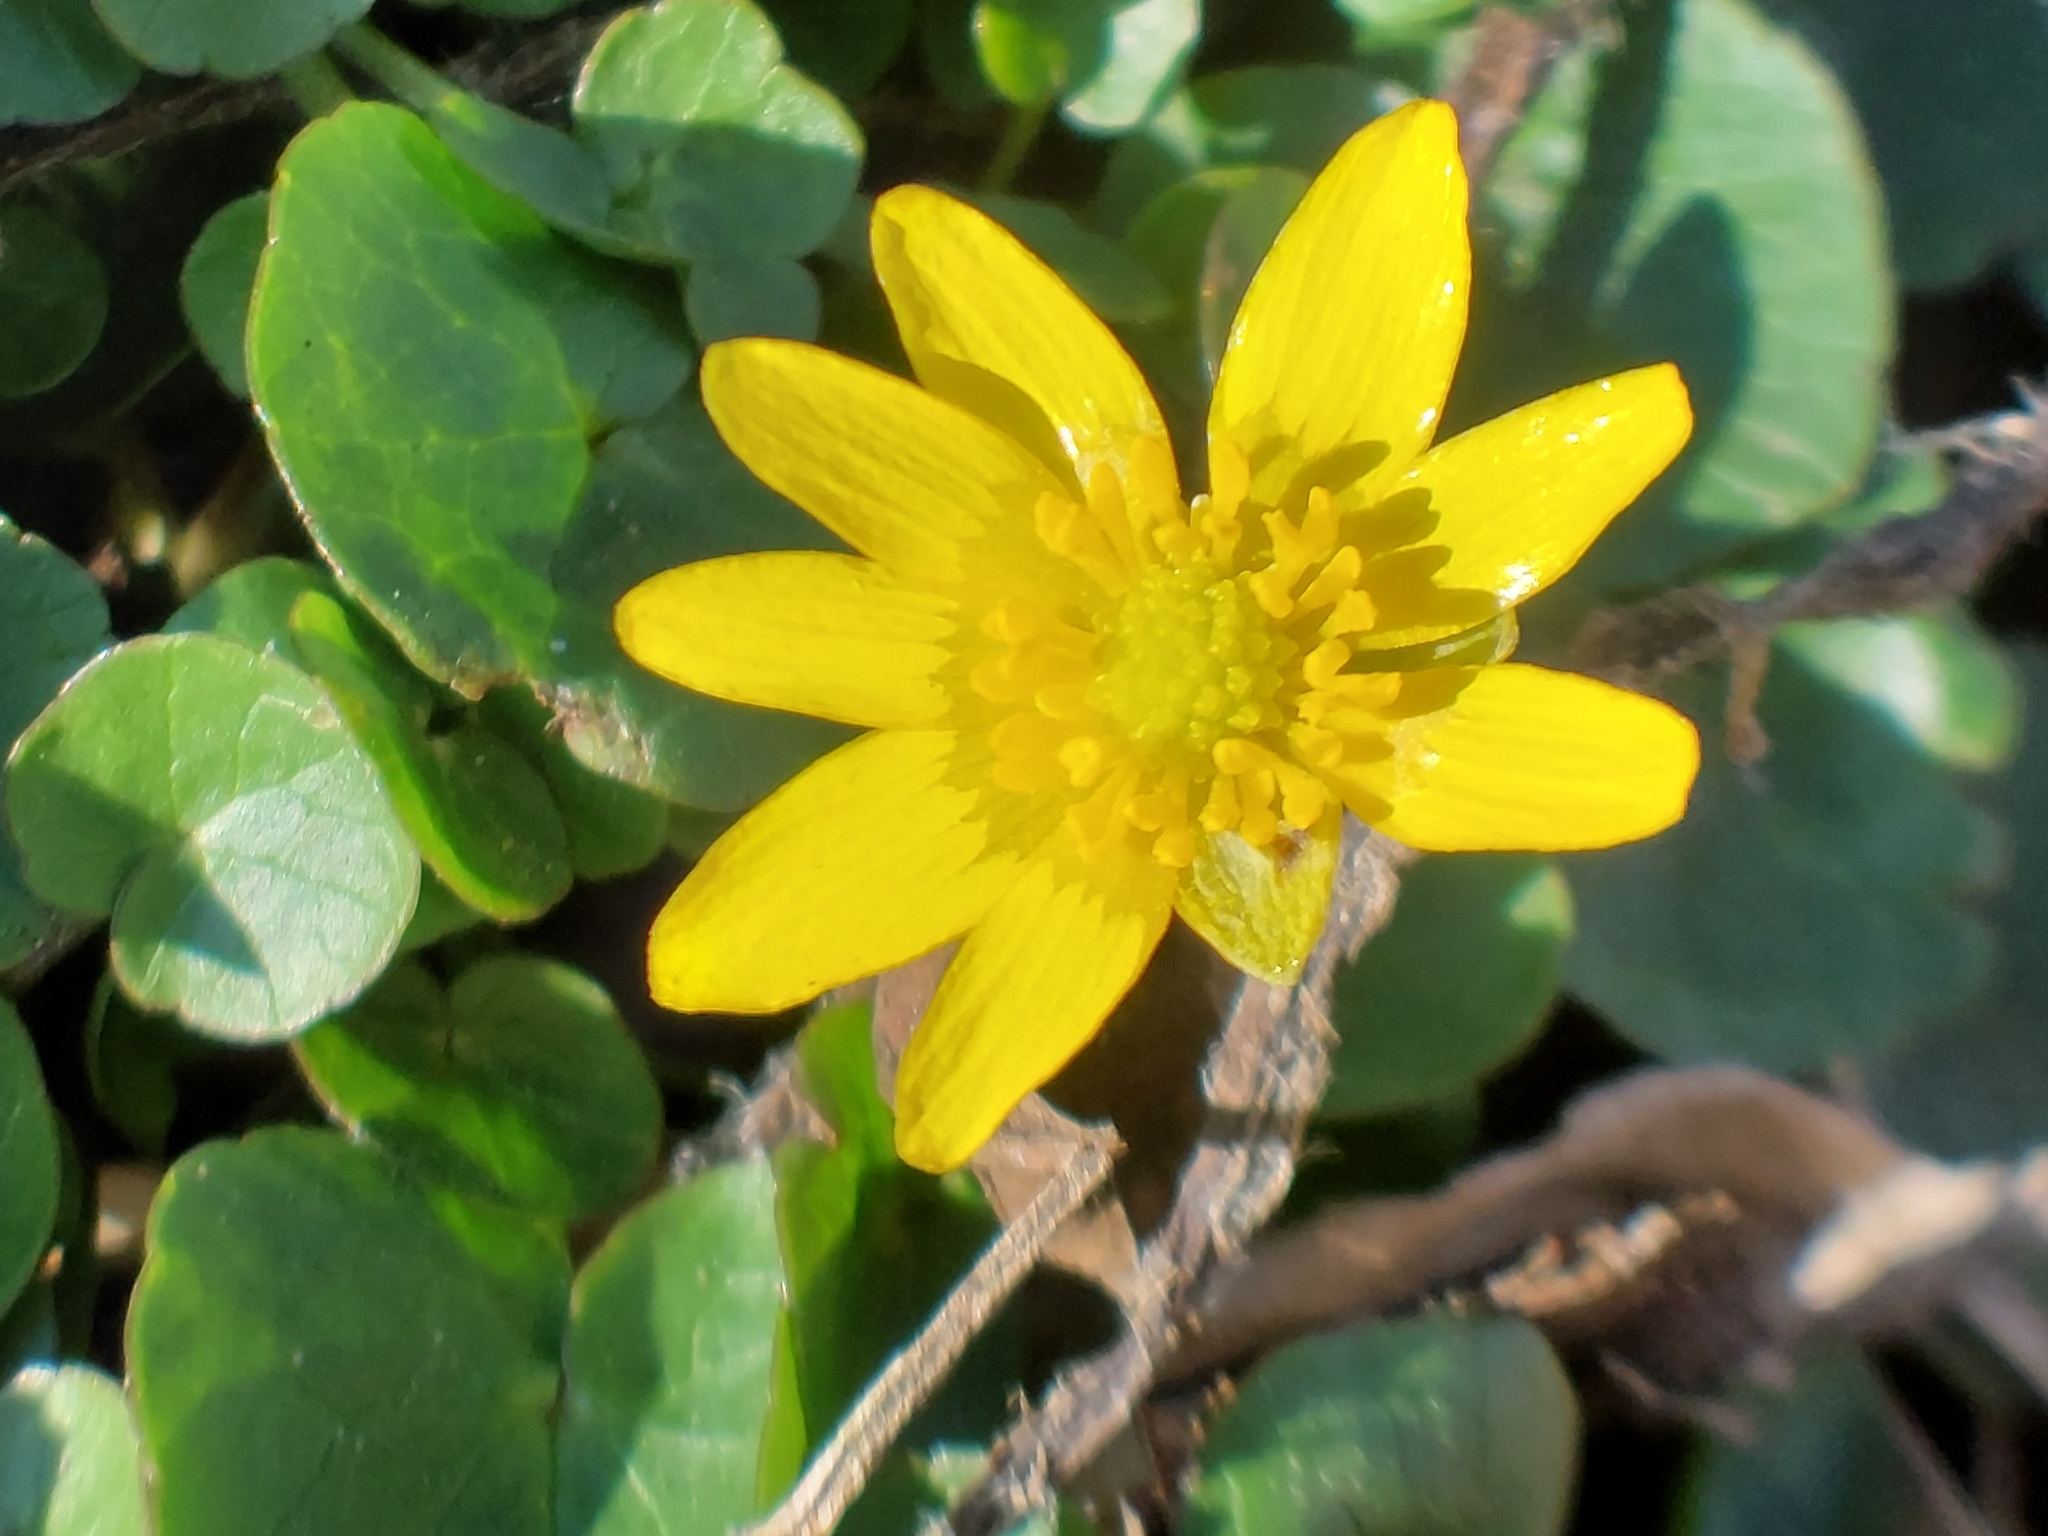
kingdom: Plantae
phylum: Tracheophyta
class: Magnoliopsida
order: Ranunculales
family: Ranunculaceae
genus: Ficaria
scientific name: Ficaria verna
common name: Lesser celandine
